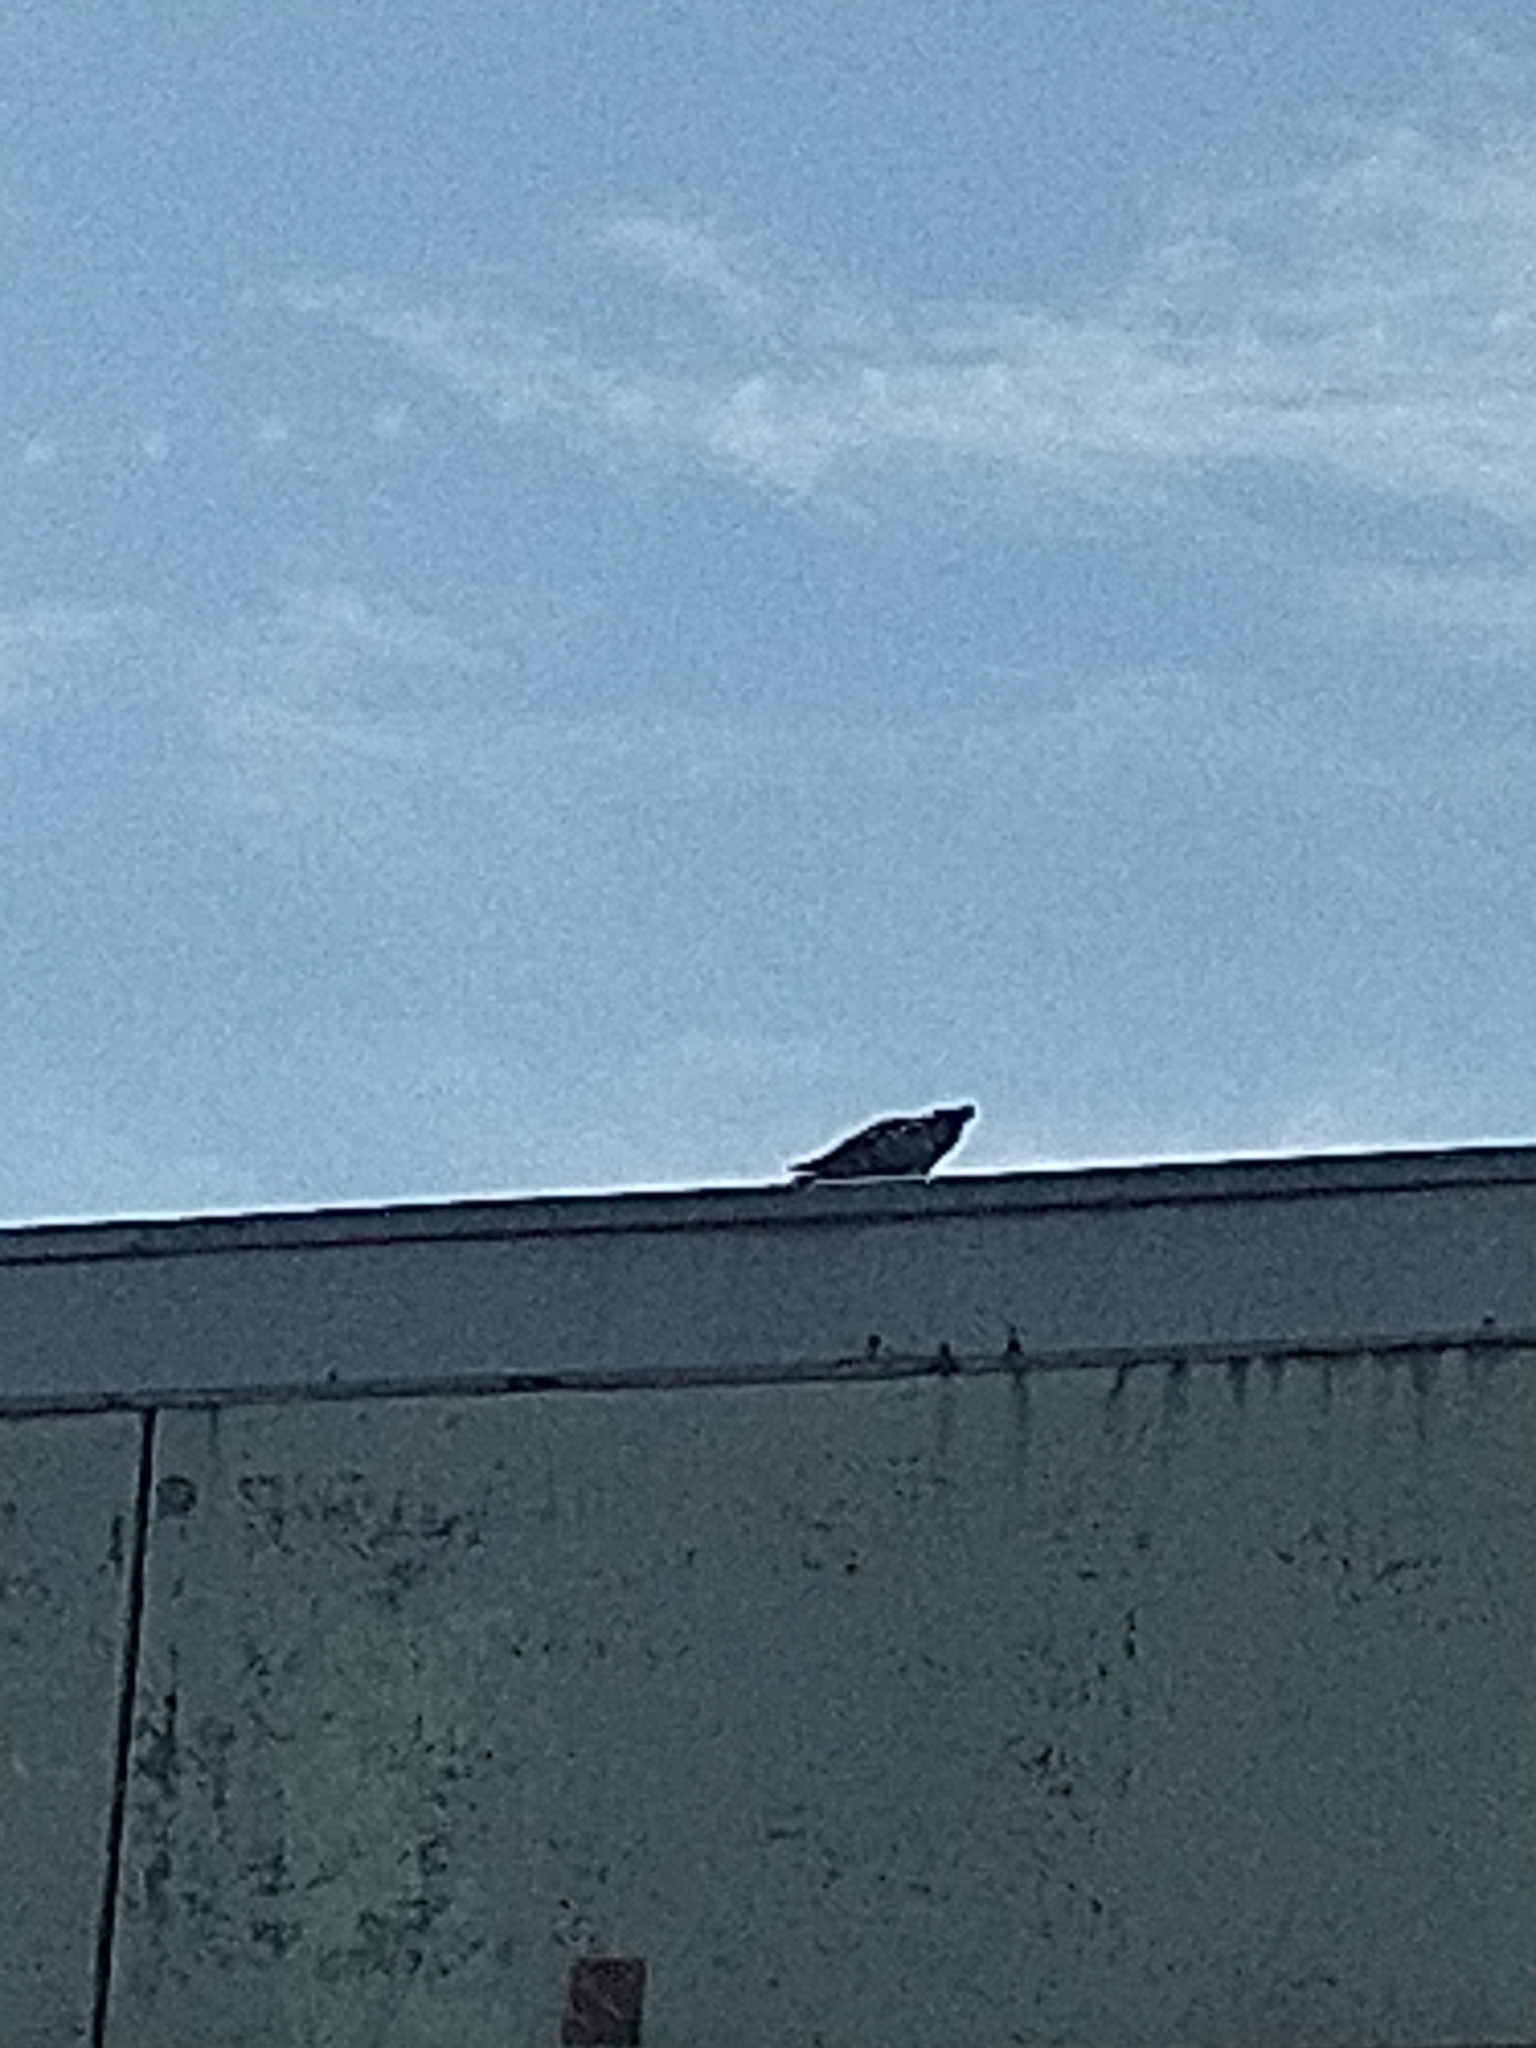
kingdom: Animalia
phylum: Chordata
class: Aves
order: Columbiformes
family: Columbidae
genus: Columba
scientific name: Columba livia
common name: Rock pigeon
